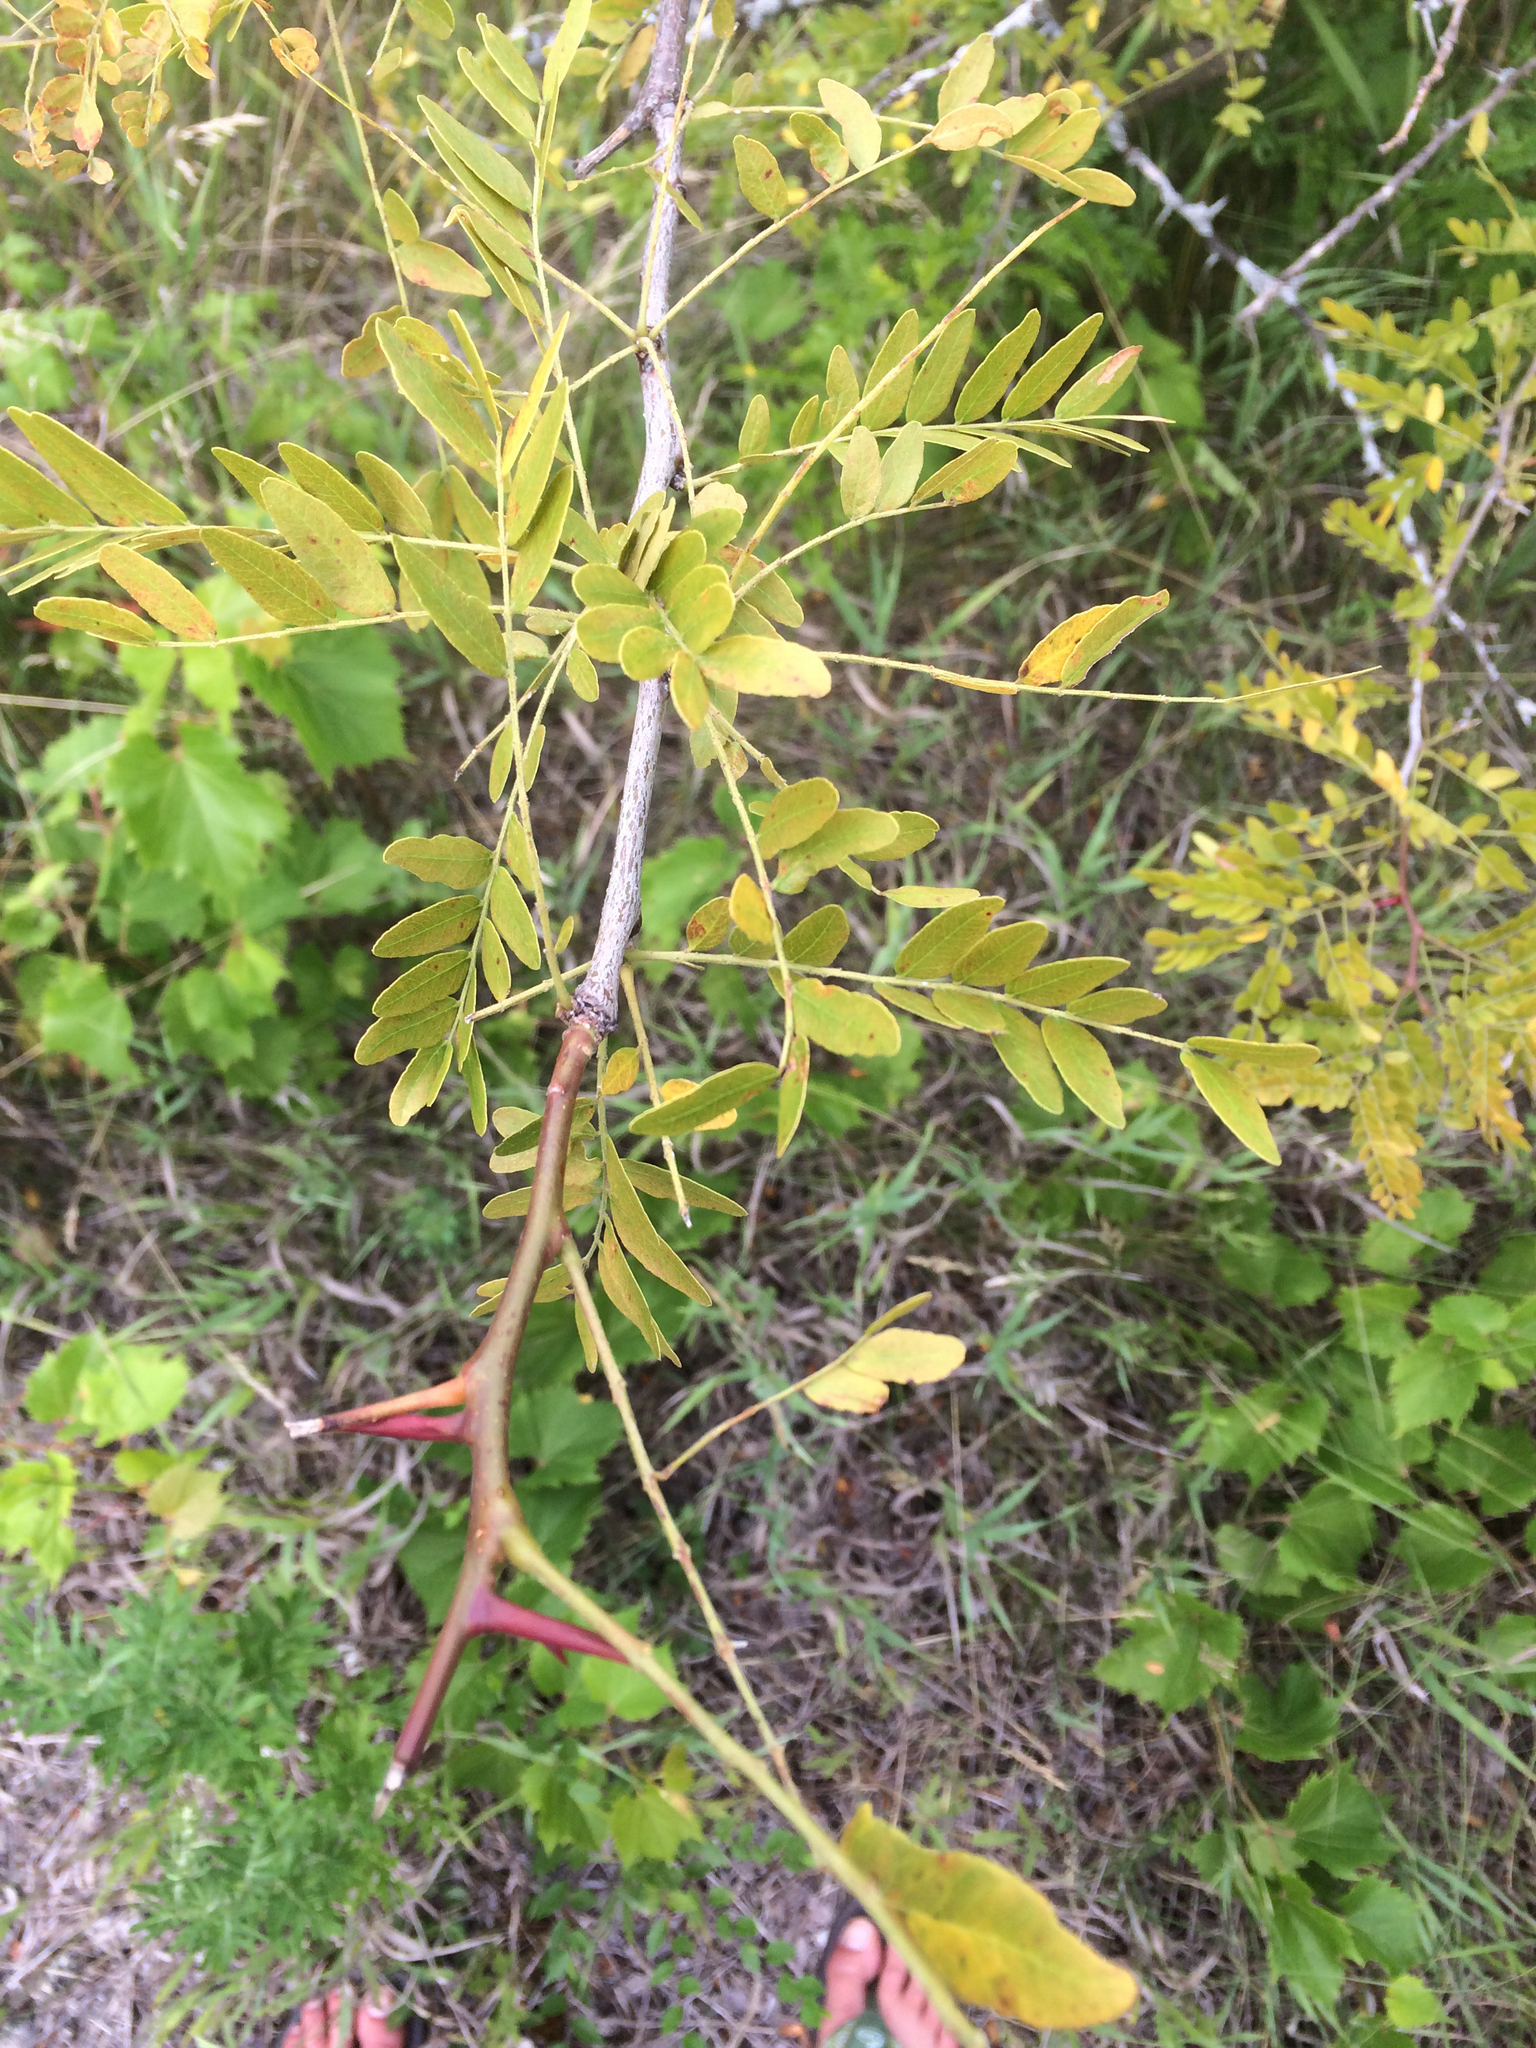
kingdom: Plantae
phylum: Tracheophyta
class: Magnoliopsida
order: Fabales
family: Fabaceae
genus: Gleditsia
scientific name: Gleditsia triacanthos
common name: Common honeylocust
